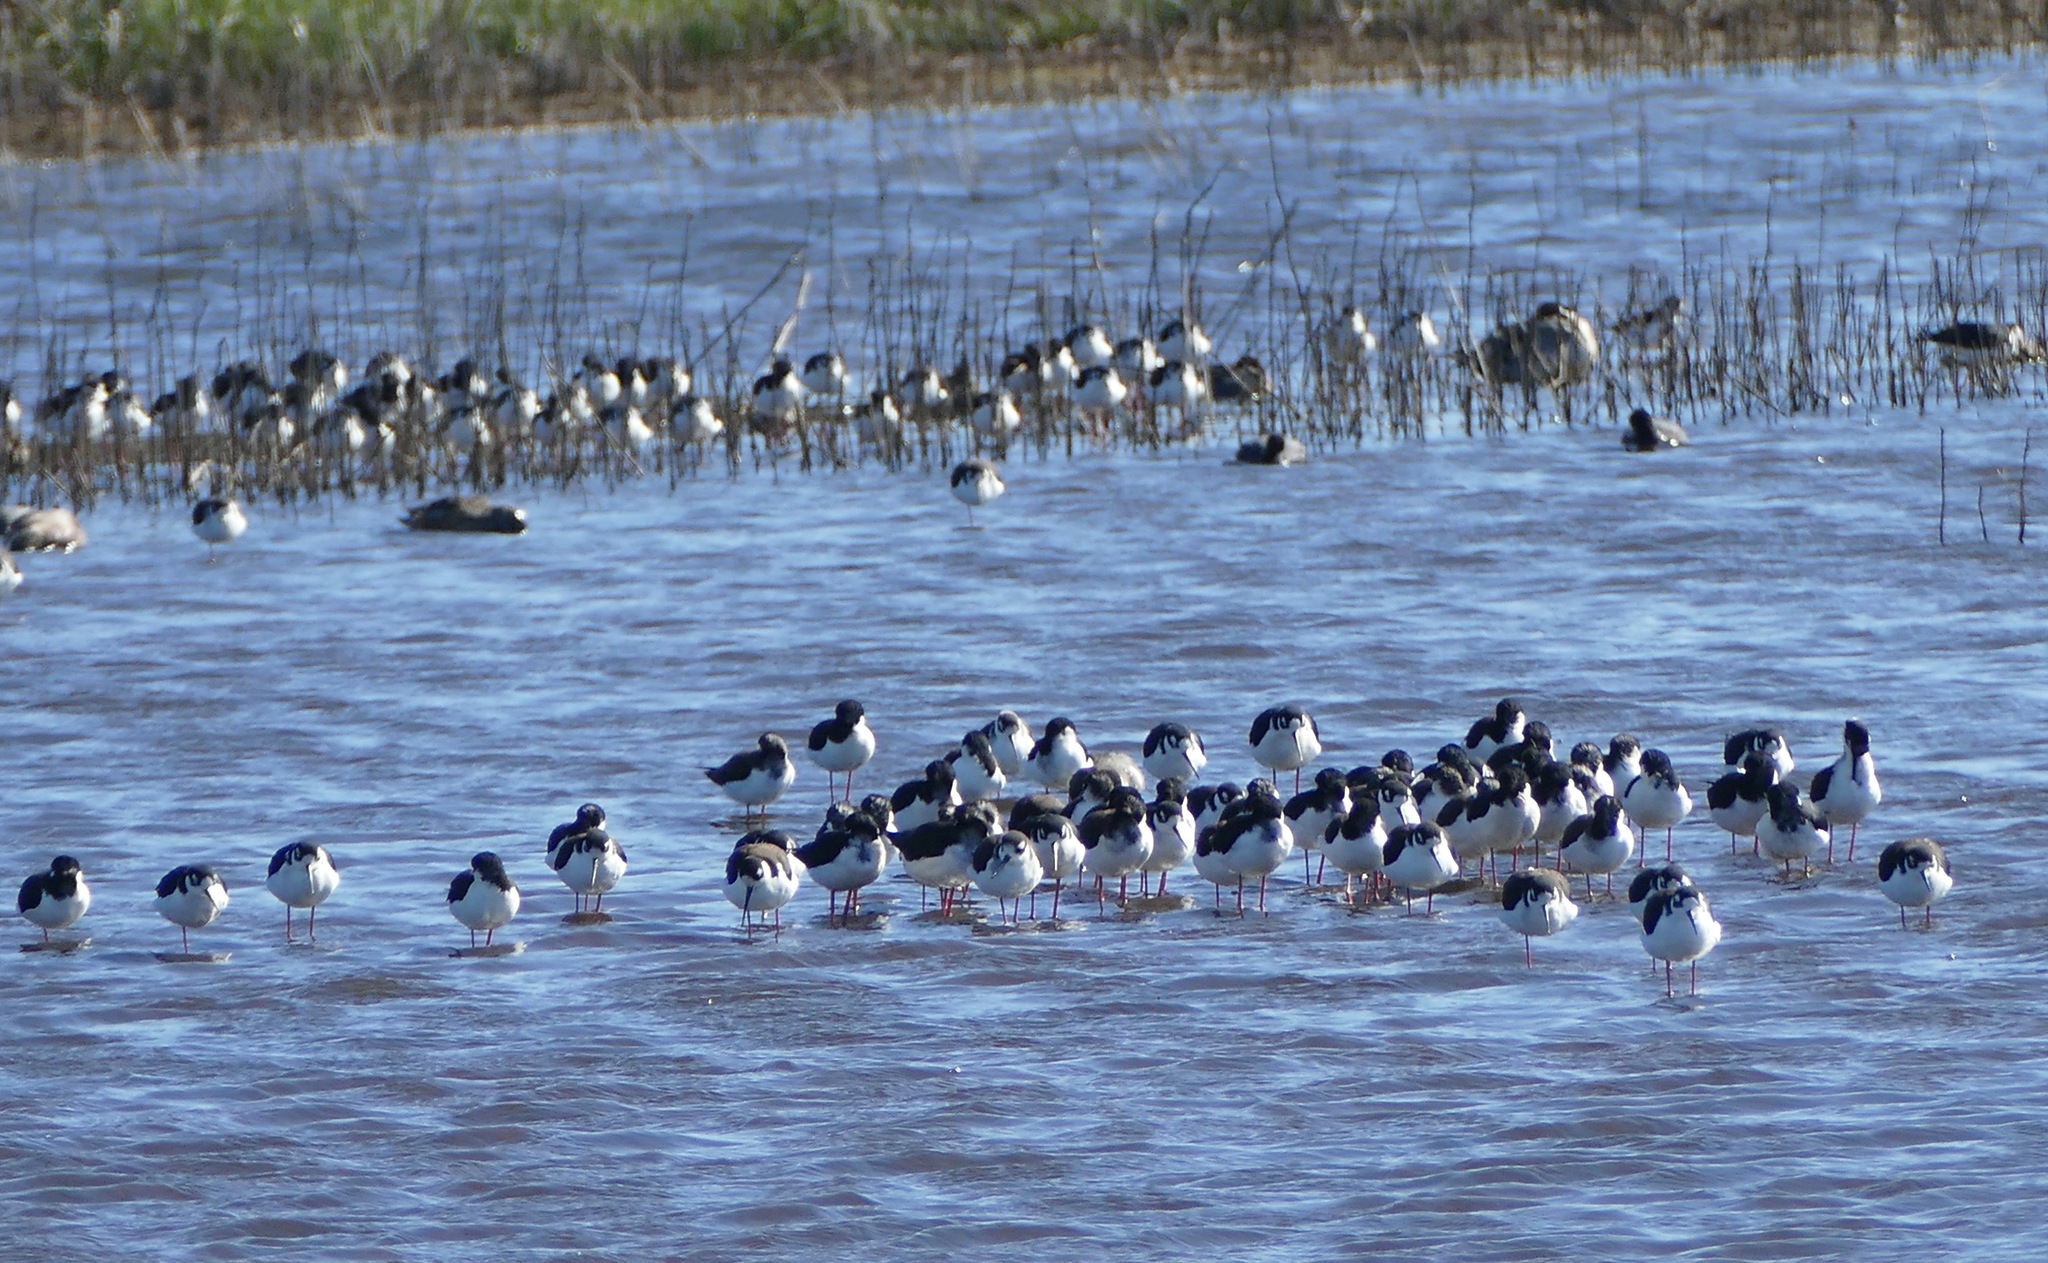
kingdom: Animalia
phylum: Chordata
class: Aves
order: Charadriiformes
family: Recurvirostridae
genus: Himantopus
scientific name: Himantopus mexicanus
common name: Black-necked stilt
